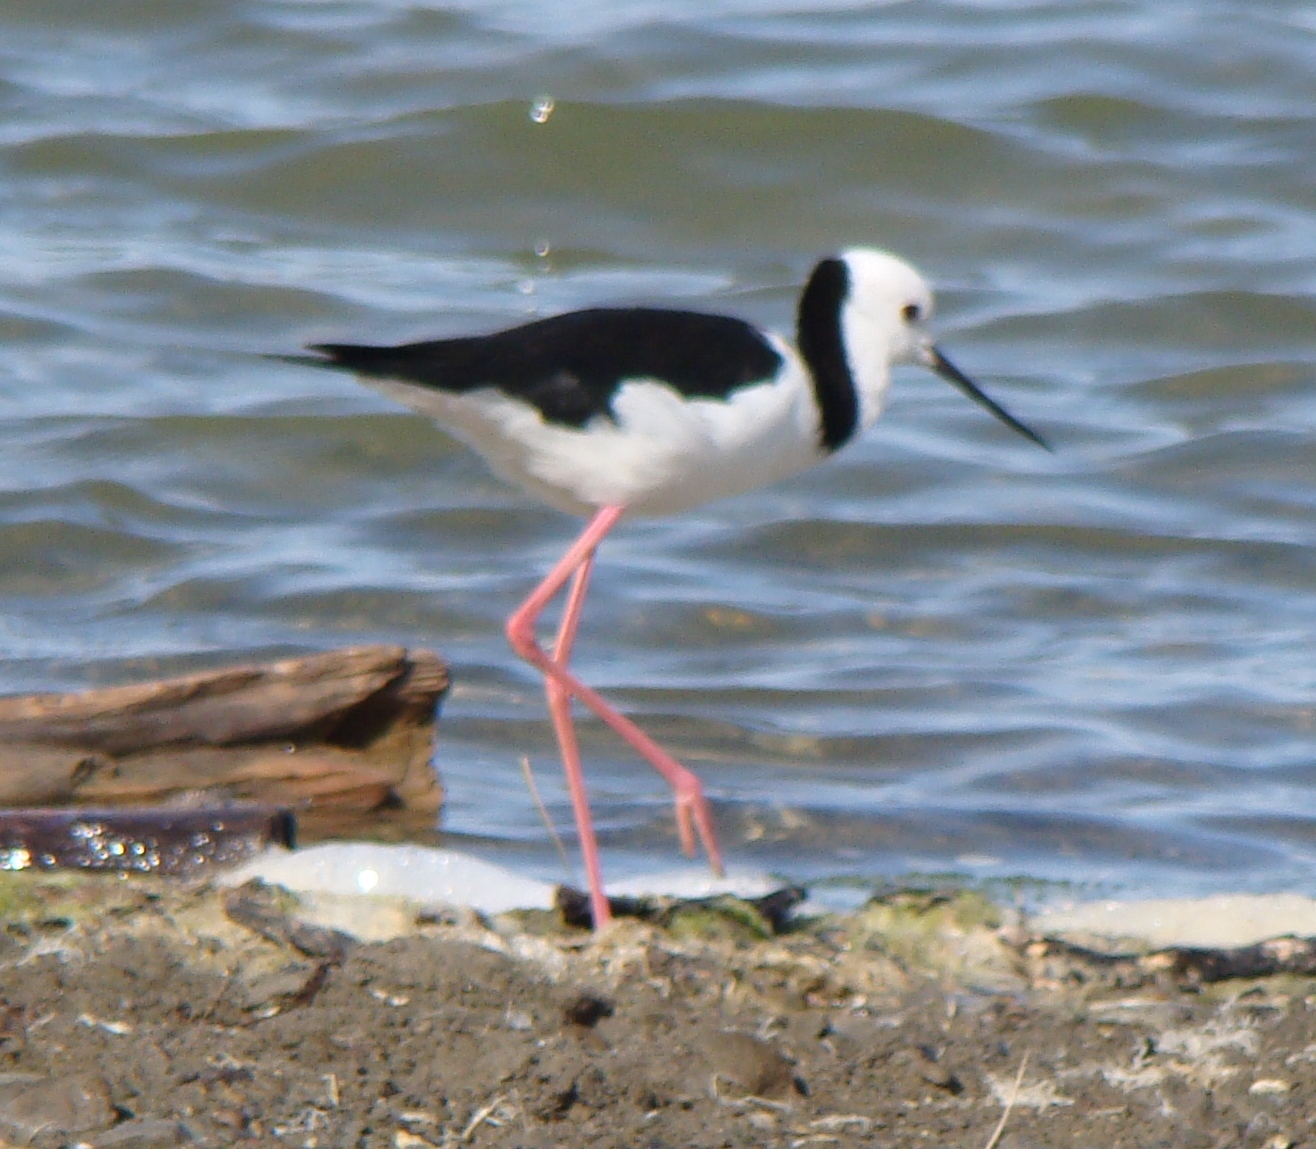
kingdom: Animalia
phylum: Chordata
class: Aves
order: Charadriiformes
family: Recurvirostridae
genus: Himantopus
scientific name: Himantopus leucocephalus
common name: White-headed stilt
